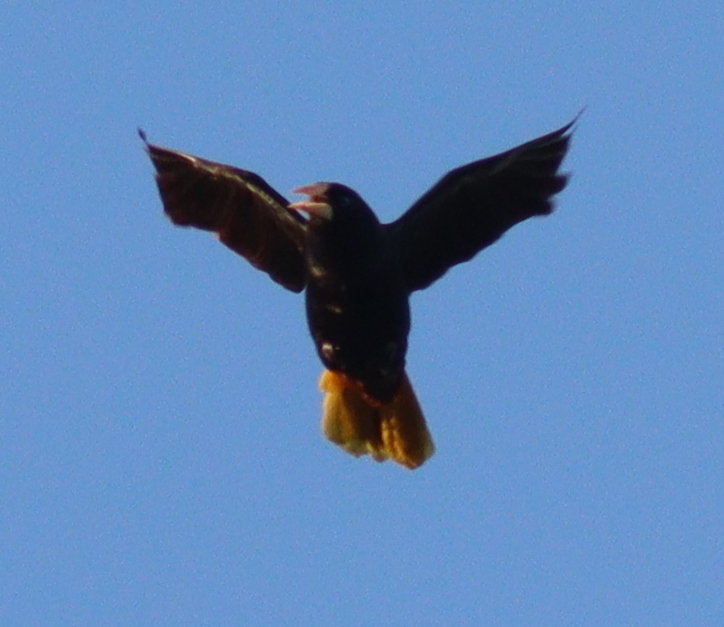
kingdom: Animalia
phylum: Chordata
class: Aves
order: Passeriformes
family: Icteridae
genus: Psarocolius
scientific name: Psarocolius decumanus
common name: Crested oropendola
